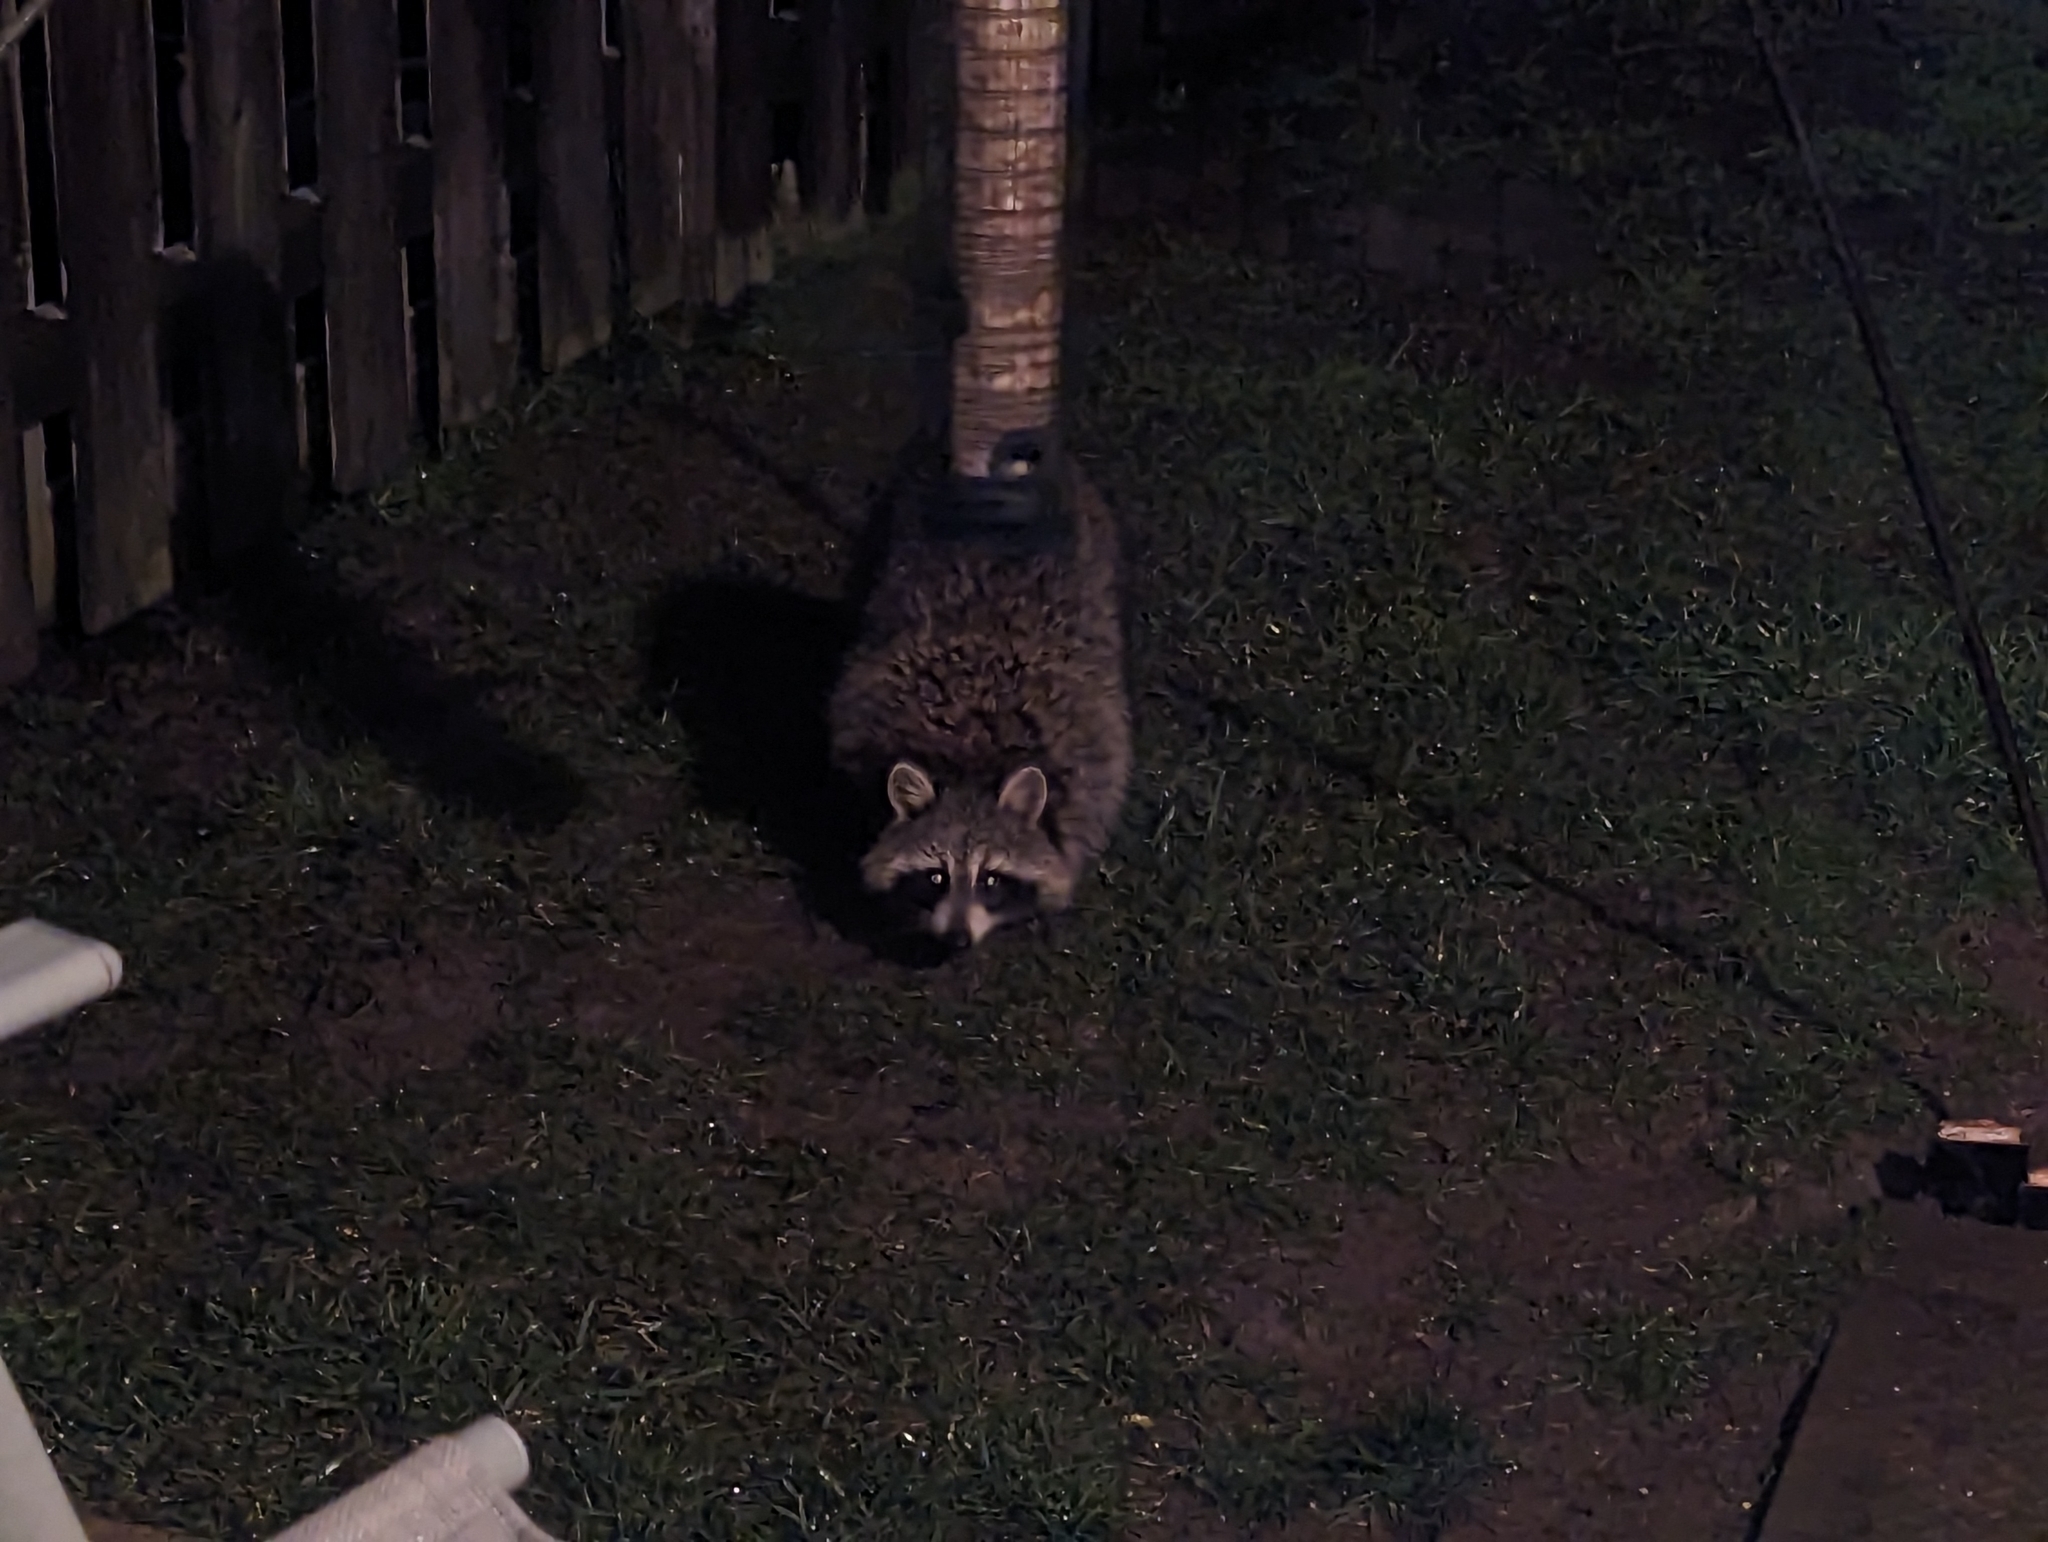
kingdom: Animalia
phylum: Chordata
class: Mammalia
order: Carnivora
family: Procyonidae
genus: Procyon
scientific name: Procyon lotor
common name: Raccoon
